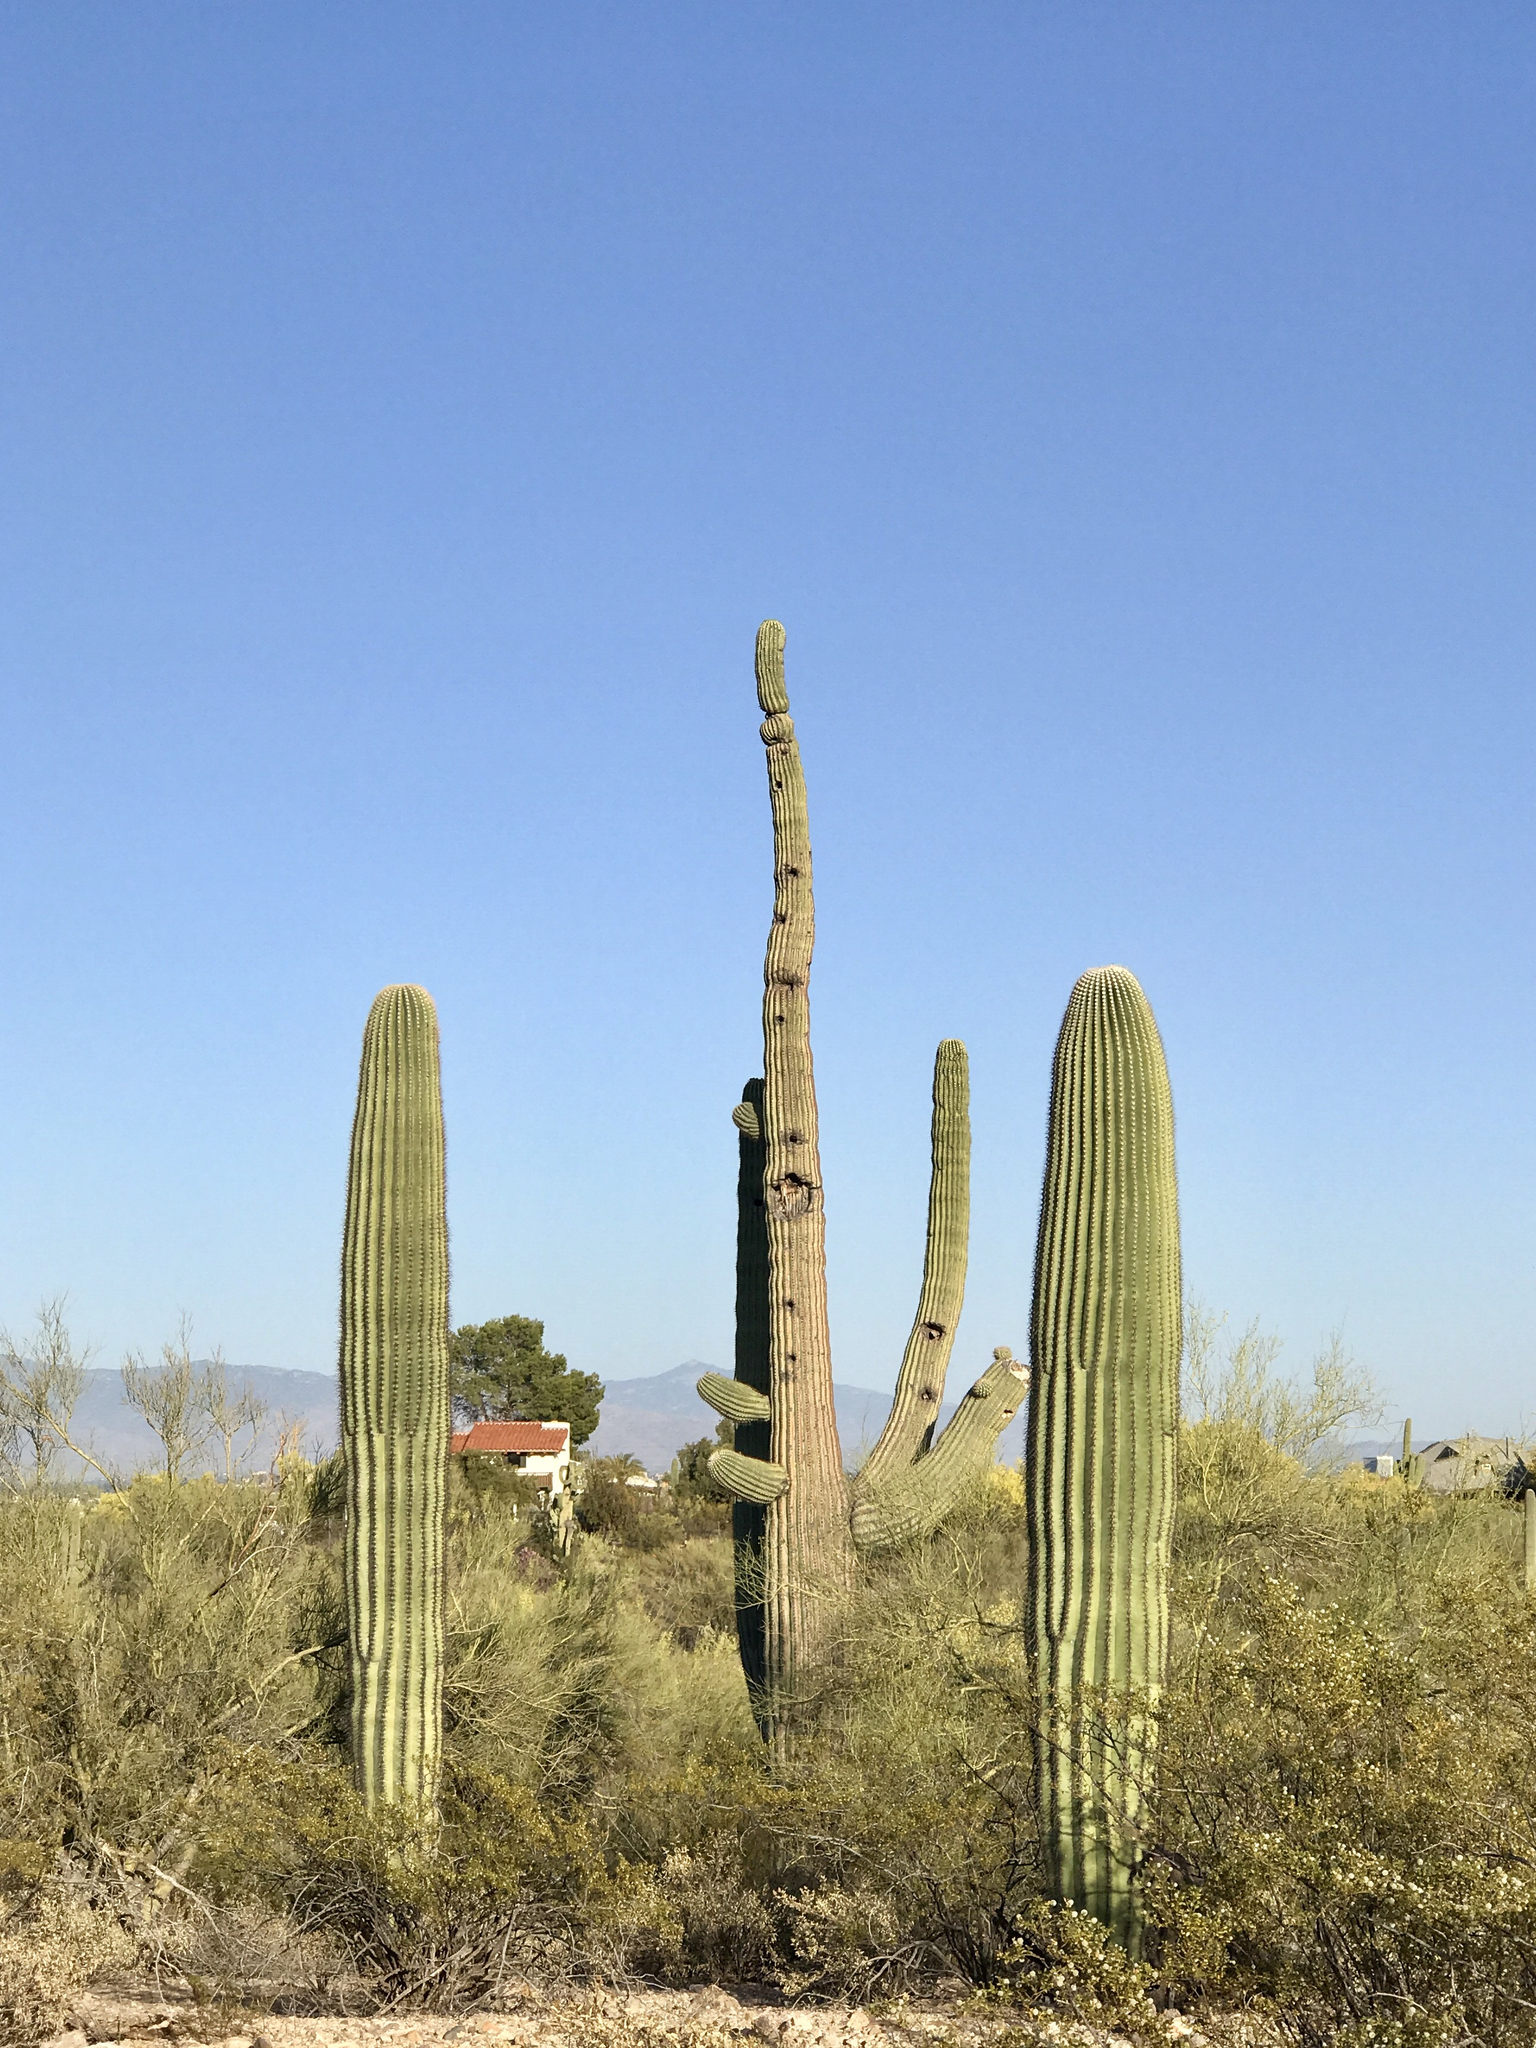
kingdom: Plantae
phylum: Tracheophyta
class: Magnoliopsida
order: Caryophyllales
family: Cactaceae
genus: Carnegiea
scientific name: Carnegiea gigantea
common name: Saguaro
